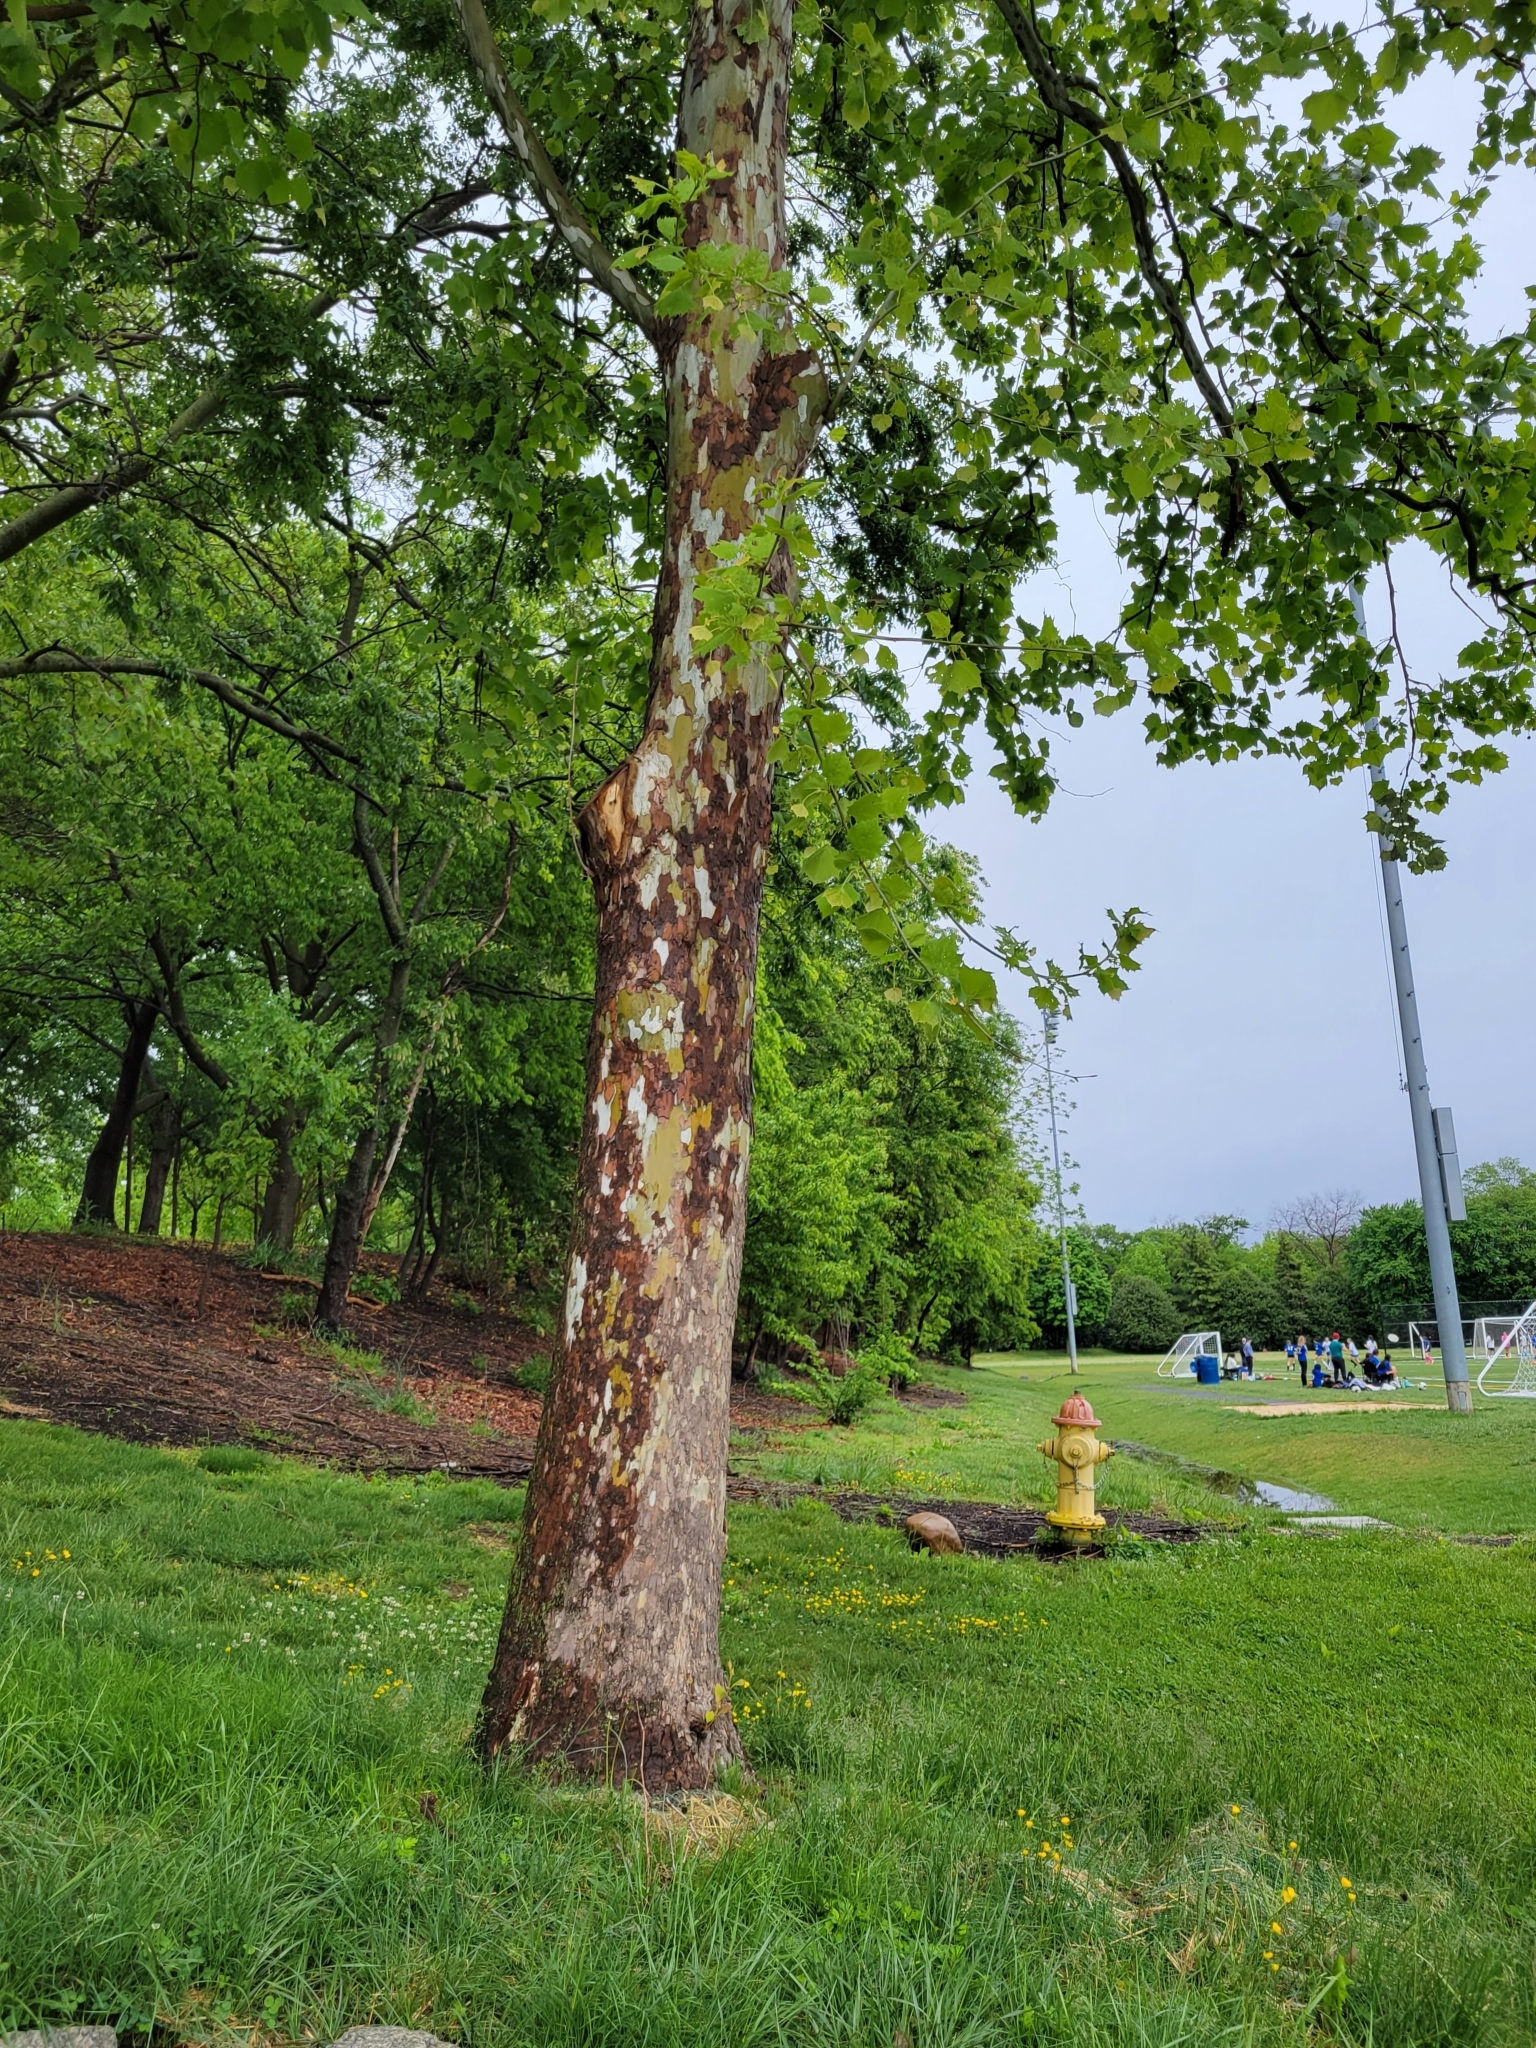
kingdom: Plantae
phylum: Tracheophyta
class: Magnoliopsida
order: Proteales
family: Platanaceae
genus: Platanus
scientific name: Platanus occidentalis
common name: American sycamore
